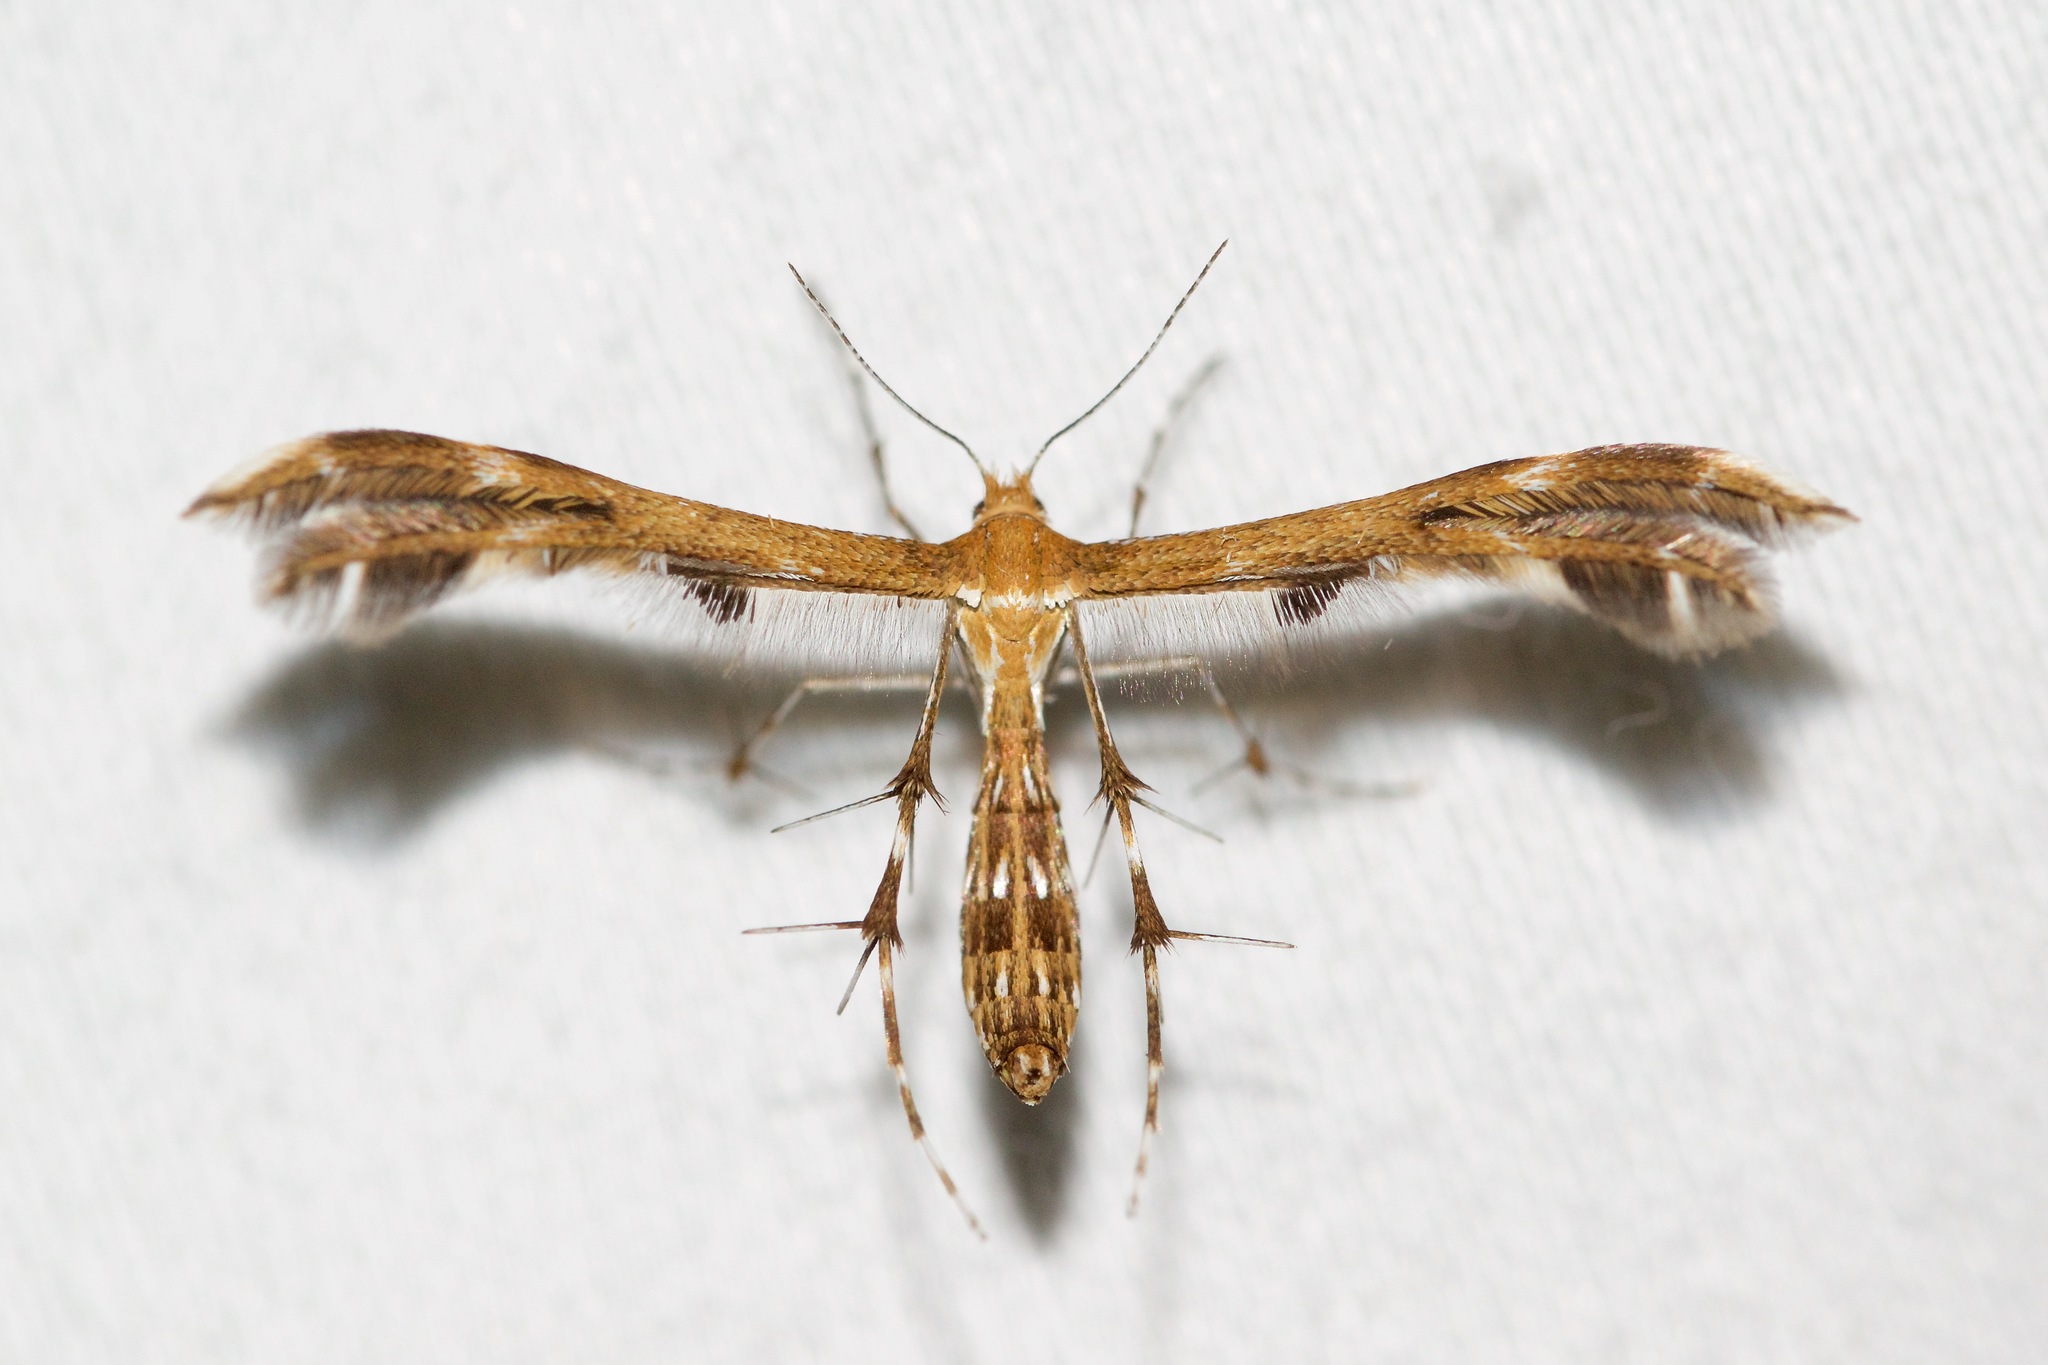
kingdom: Animalia
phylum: Arthropoda
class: Insecta
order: Lepidoptera
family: Pterophoridae
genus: Dejongia
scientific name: Dejongia lobidactylus
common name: Lobed plume moth
